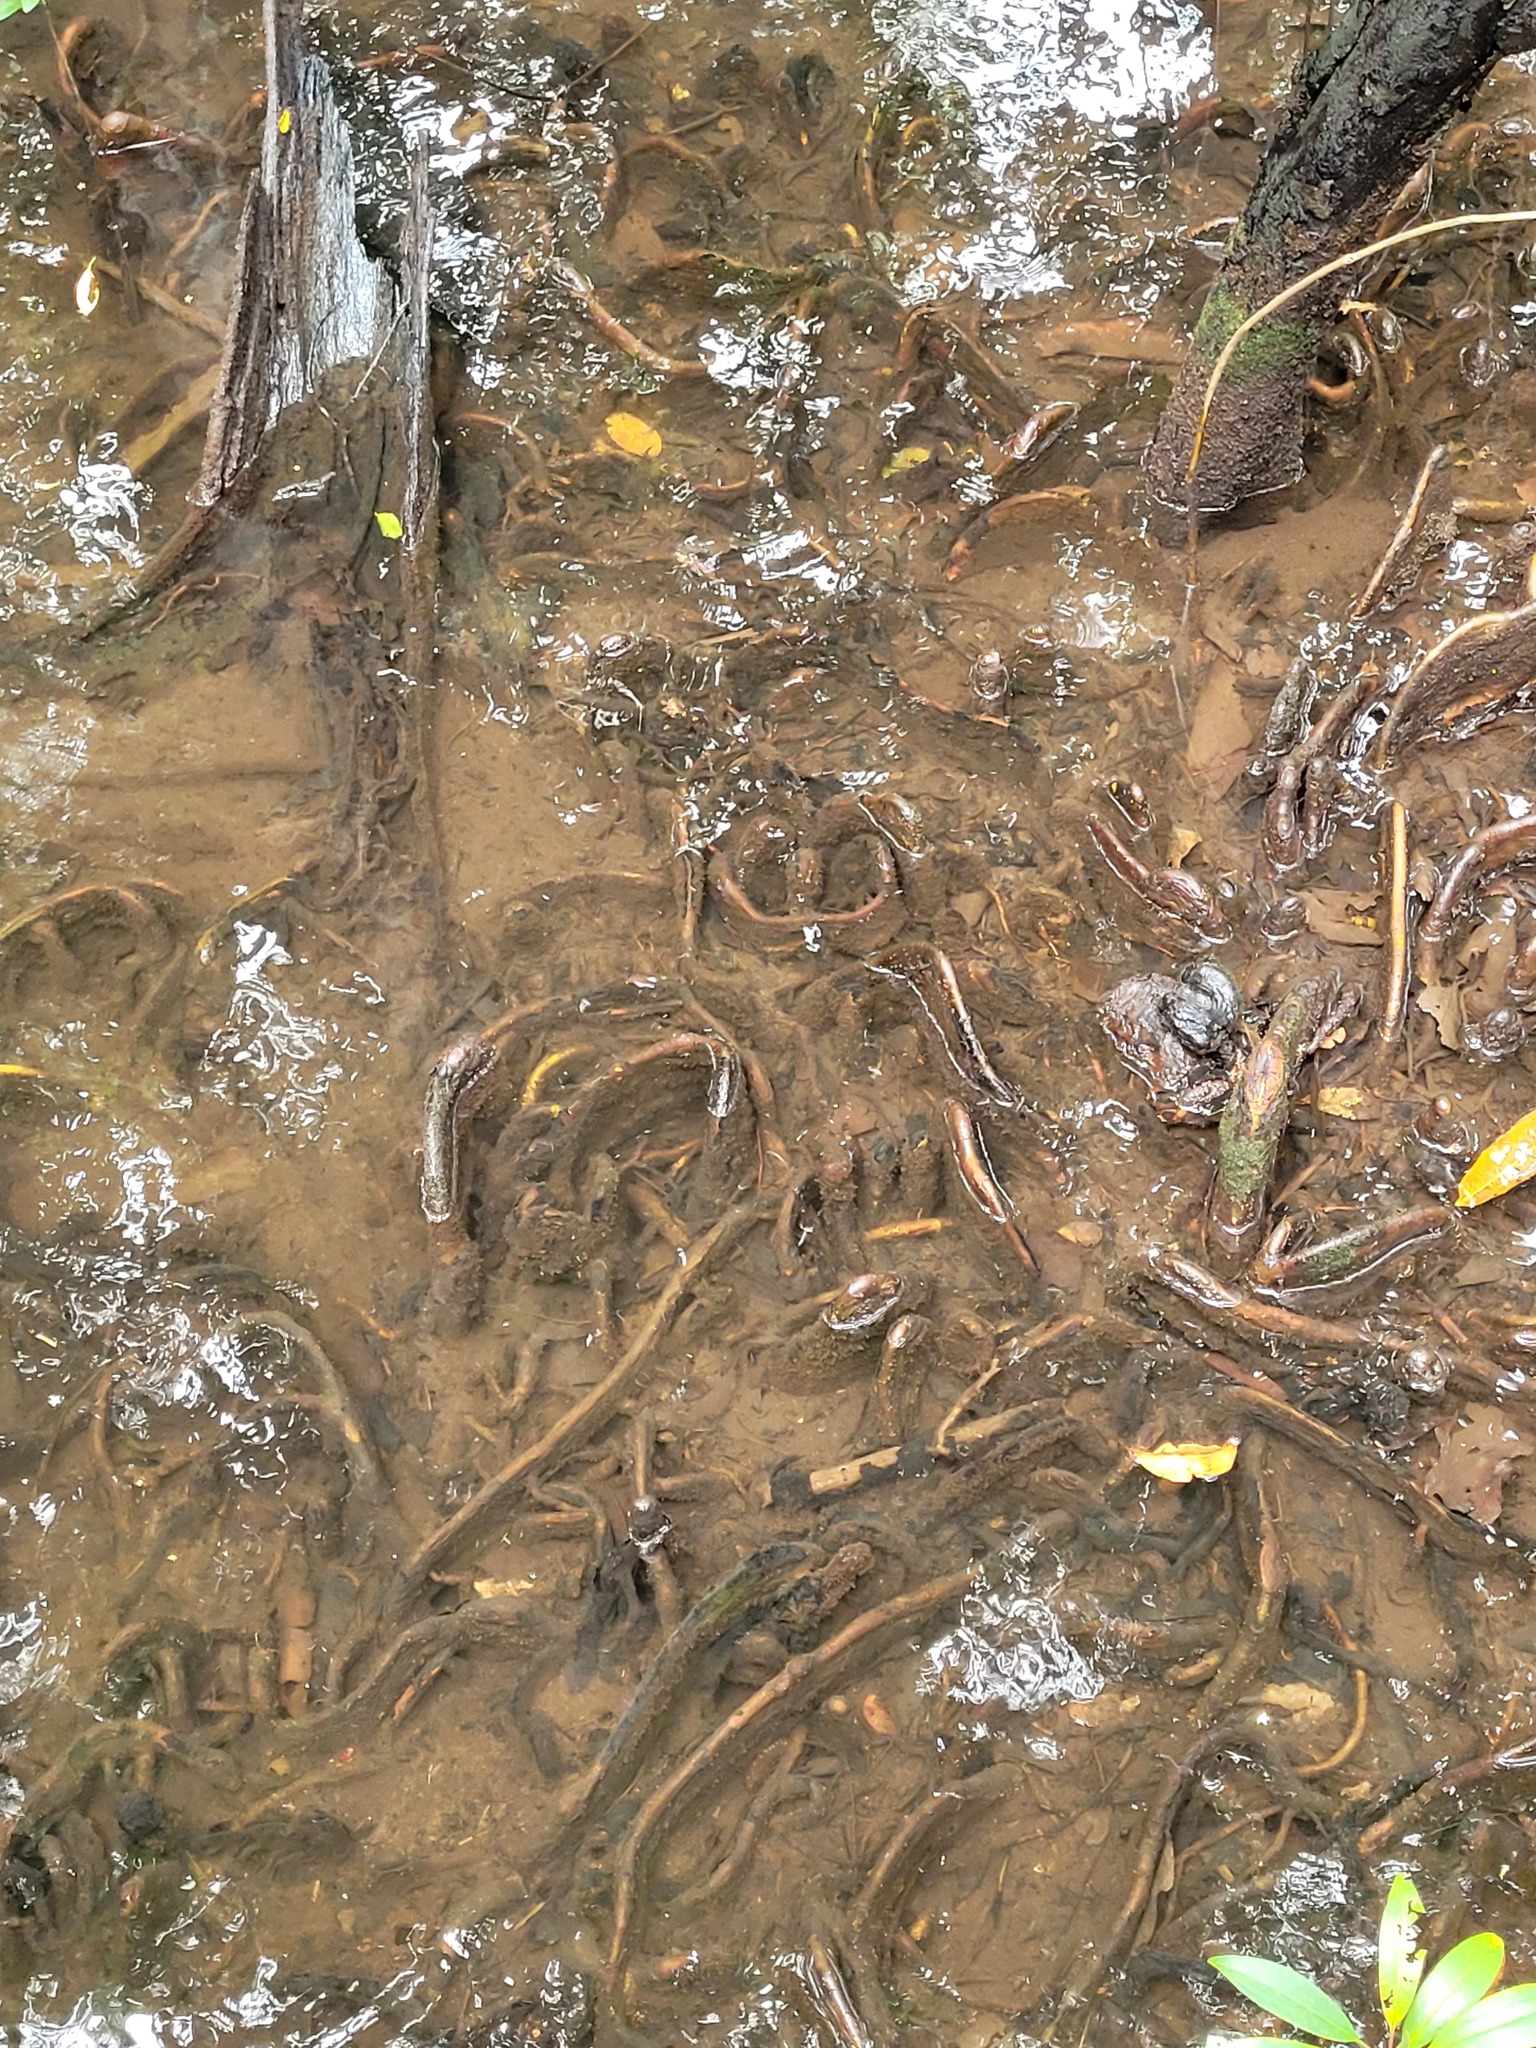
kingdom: Plantae
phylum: Tracheophyta
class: Magnoliopsida
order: Sapindales
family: Meliaceae
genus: Xylocarpus
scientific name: Xylocarpus granatum
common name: Apple mangrove
